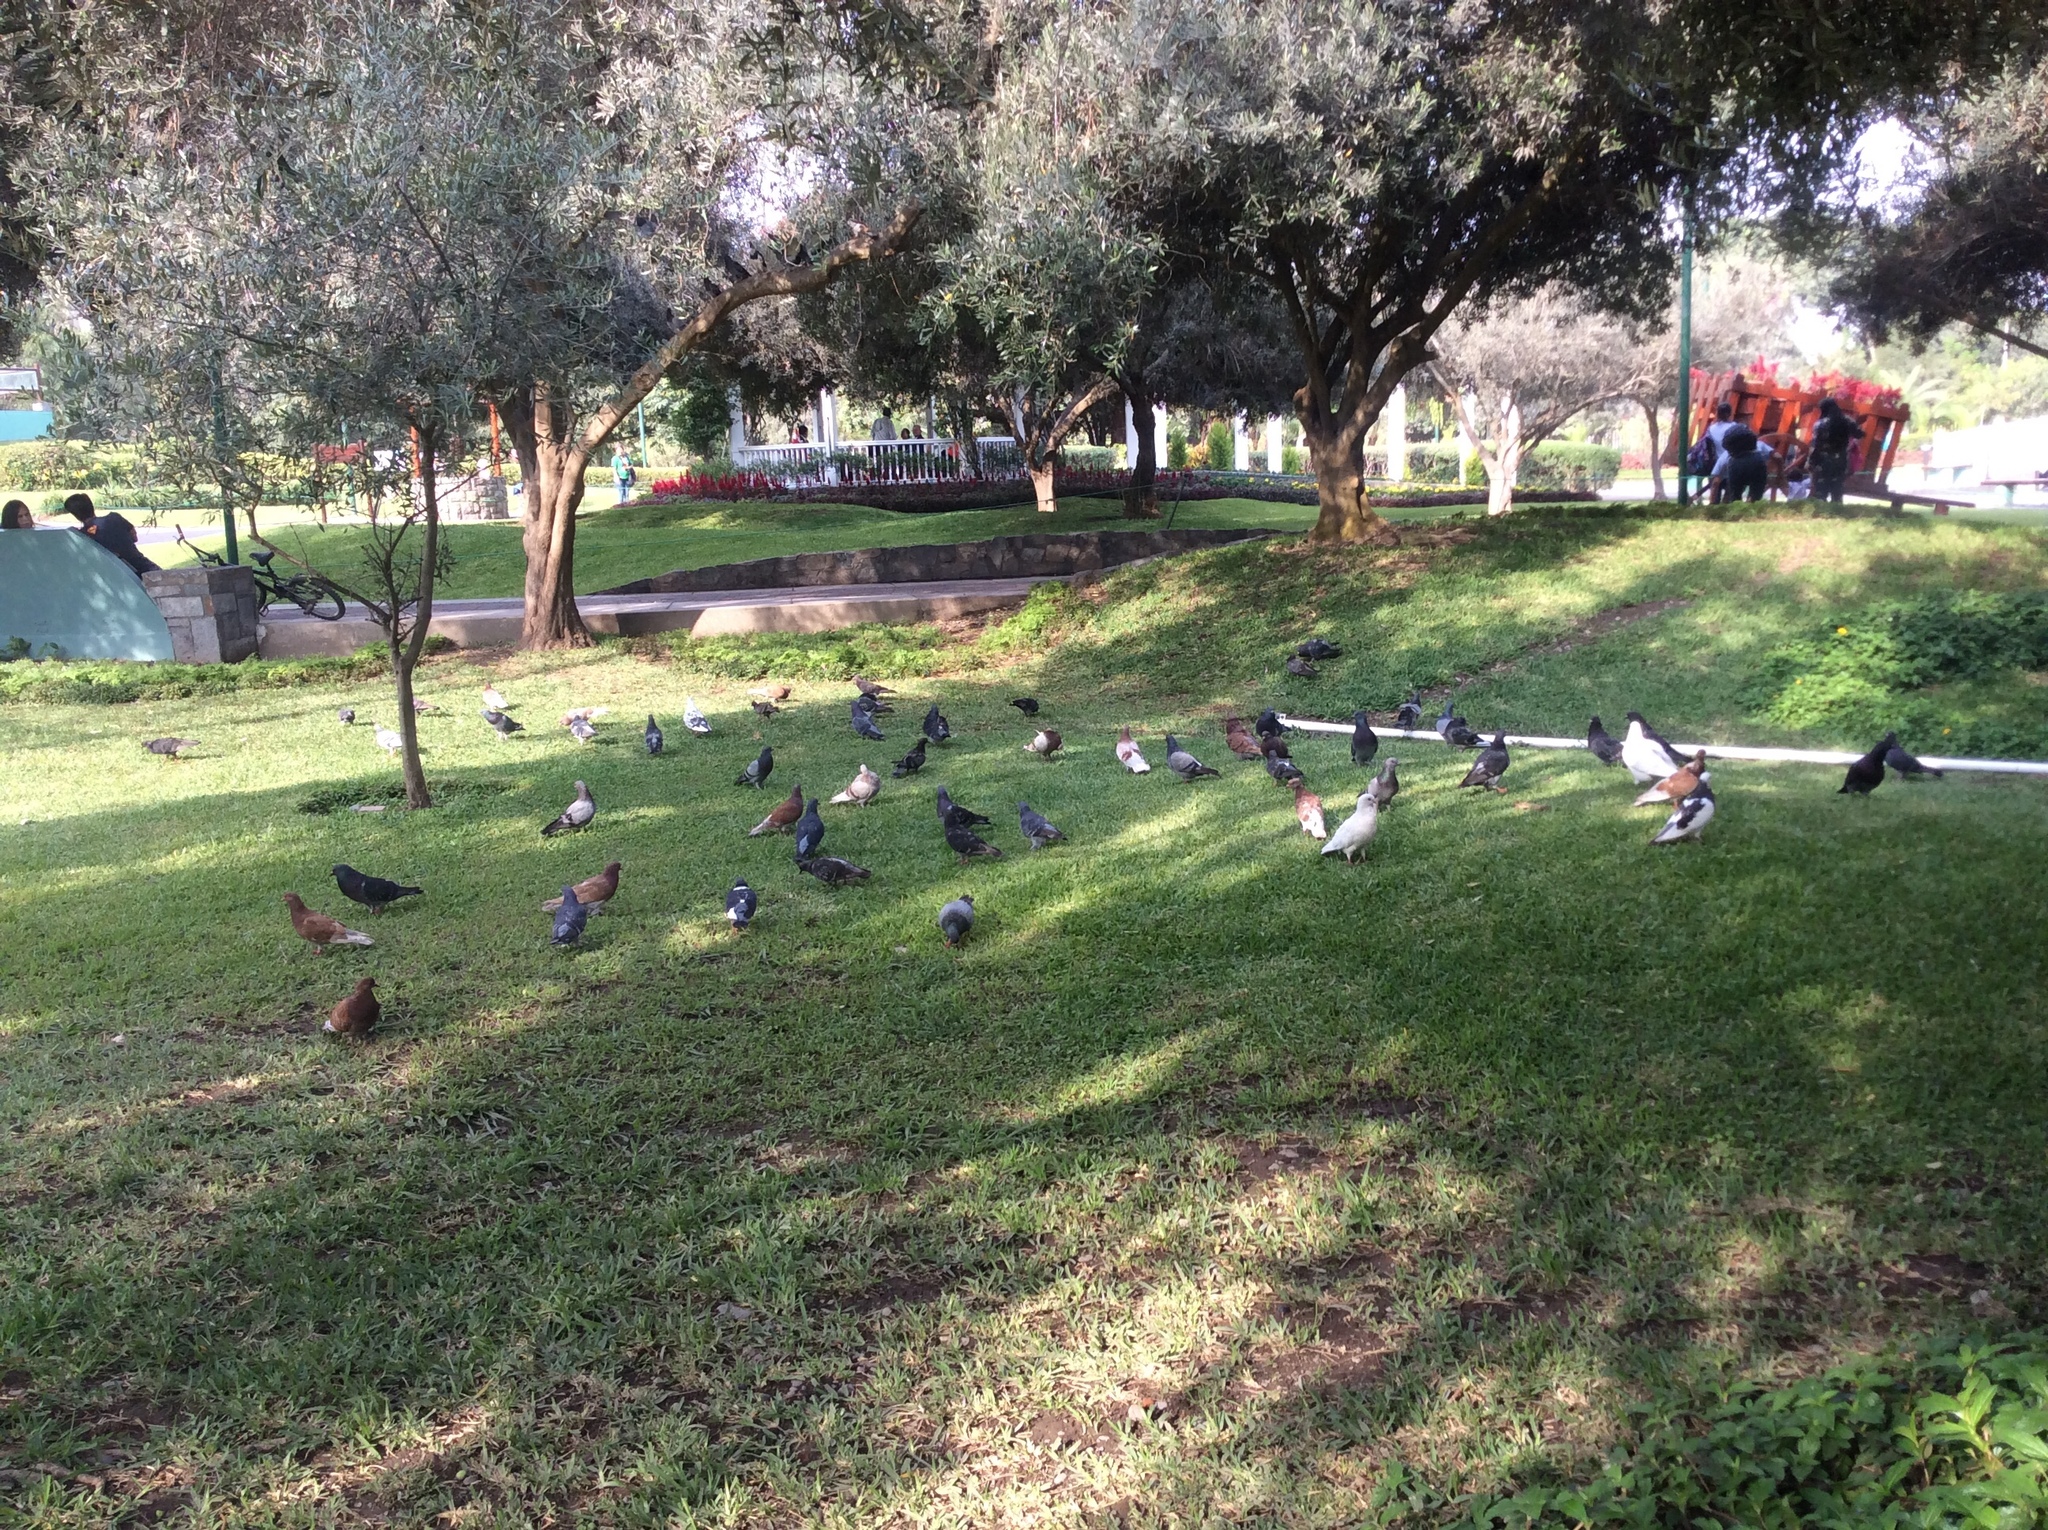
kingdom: Animalia
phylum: Chordata
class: Aves
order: Columbiformes
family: Columbidae
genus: Columba
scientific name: Columba livia
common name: Rock pigeon
